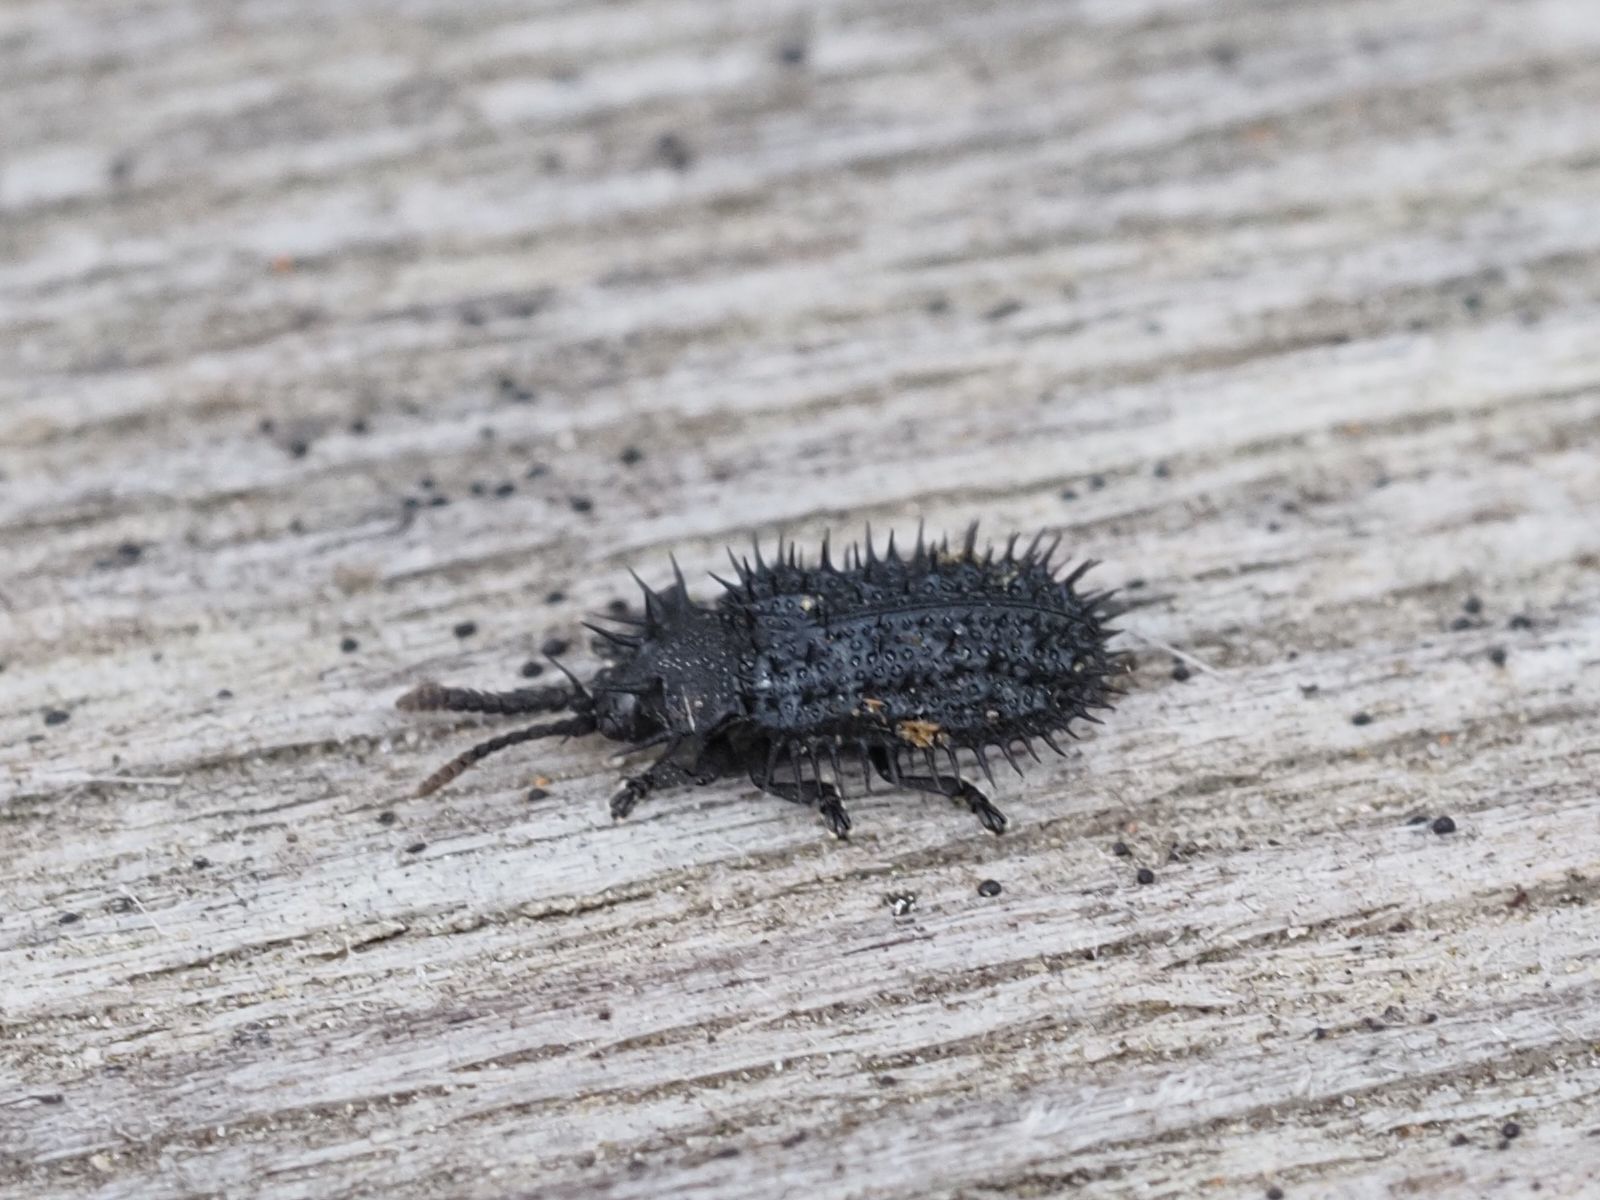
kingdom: Animalia
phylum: Arthropoda
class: Insecta
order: Coleoptera
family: Chrysomelidae
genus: Hispa
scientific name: Hispa atra
